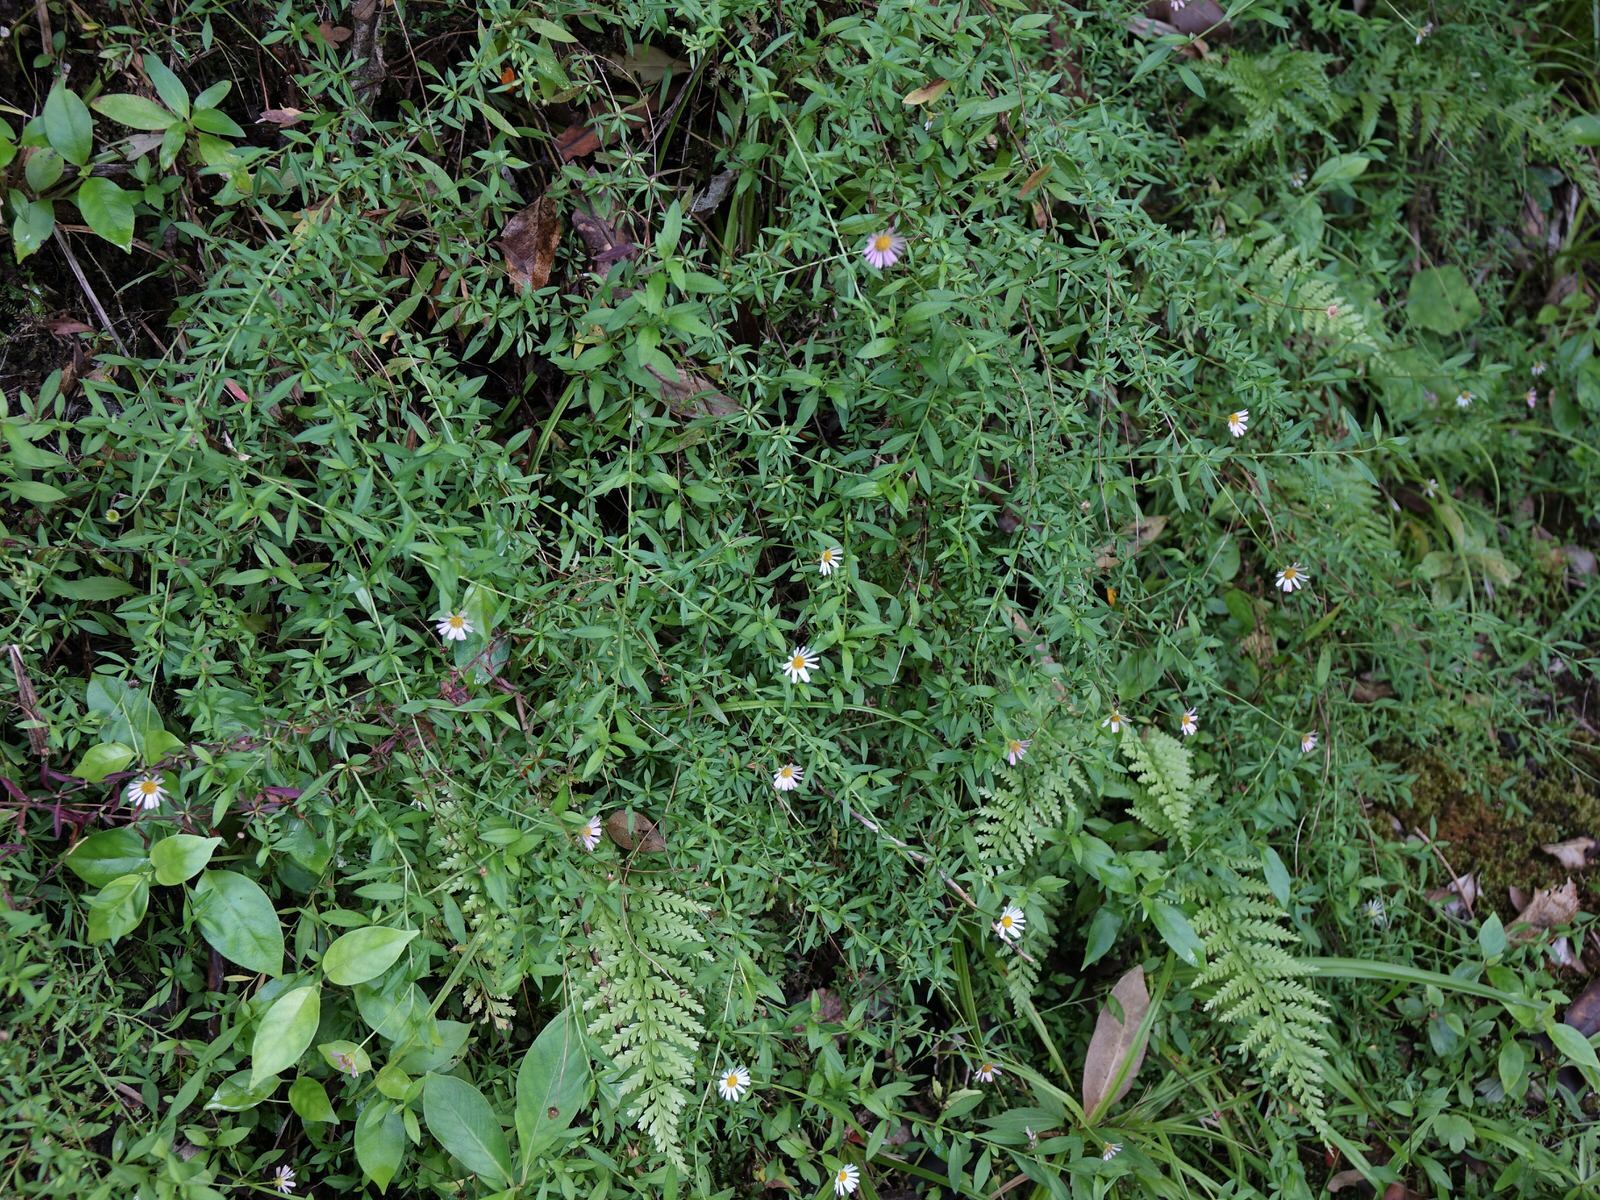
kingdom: Plantae
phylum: Tracheophyta
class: Magnoliopsida
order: Asterales
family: Asteraceae
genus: Erigeron
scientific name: Erigeron karvinskianus
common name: Mexican fleabane
